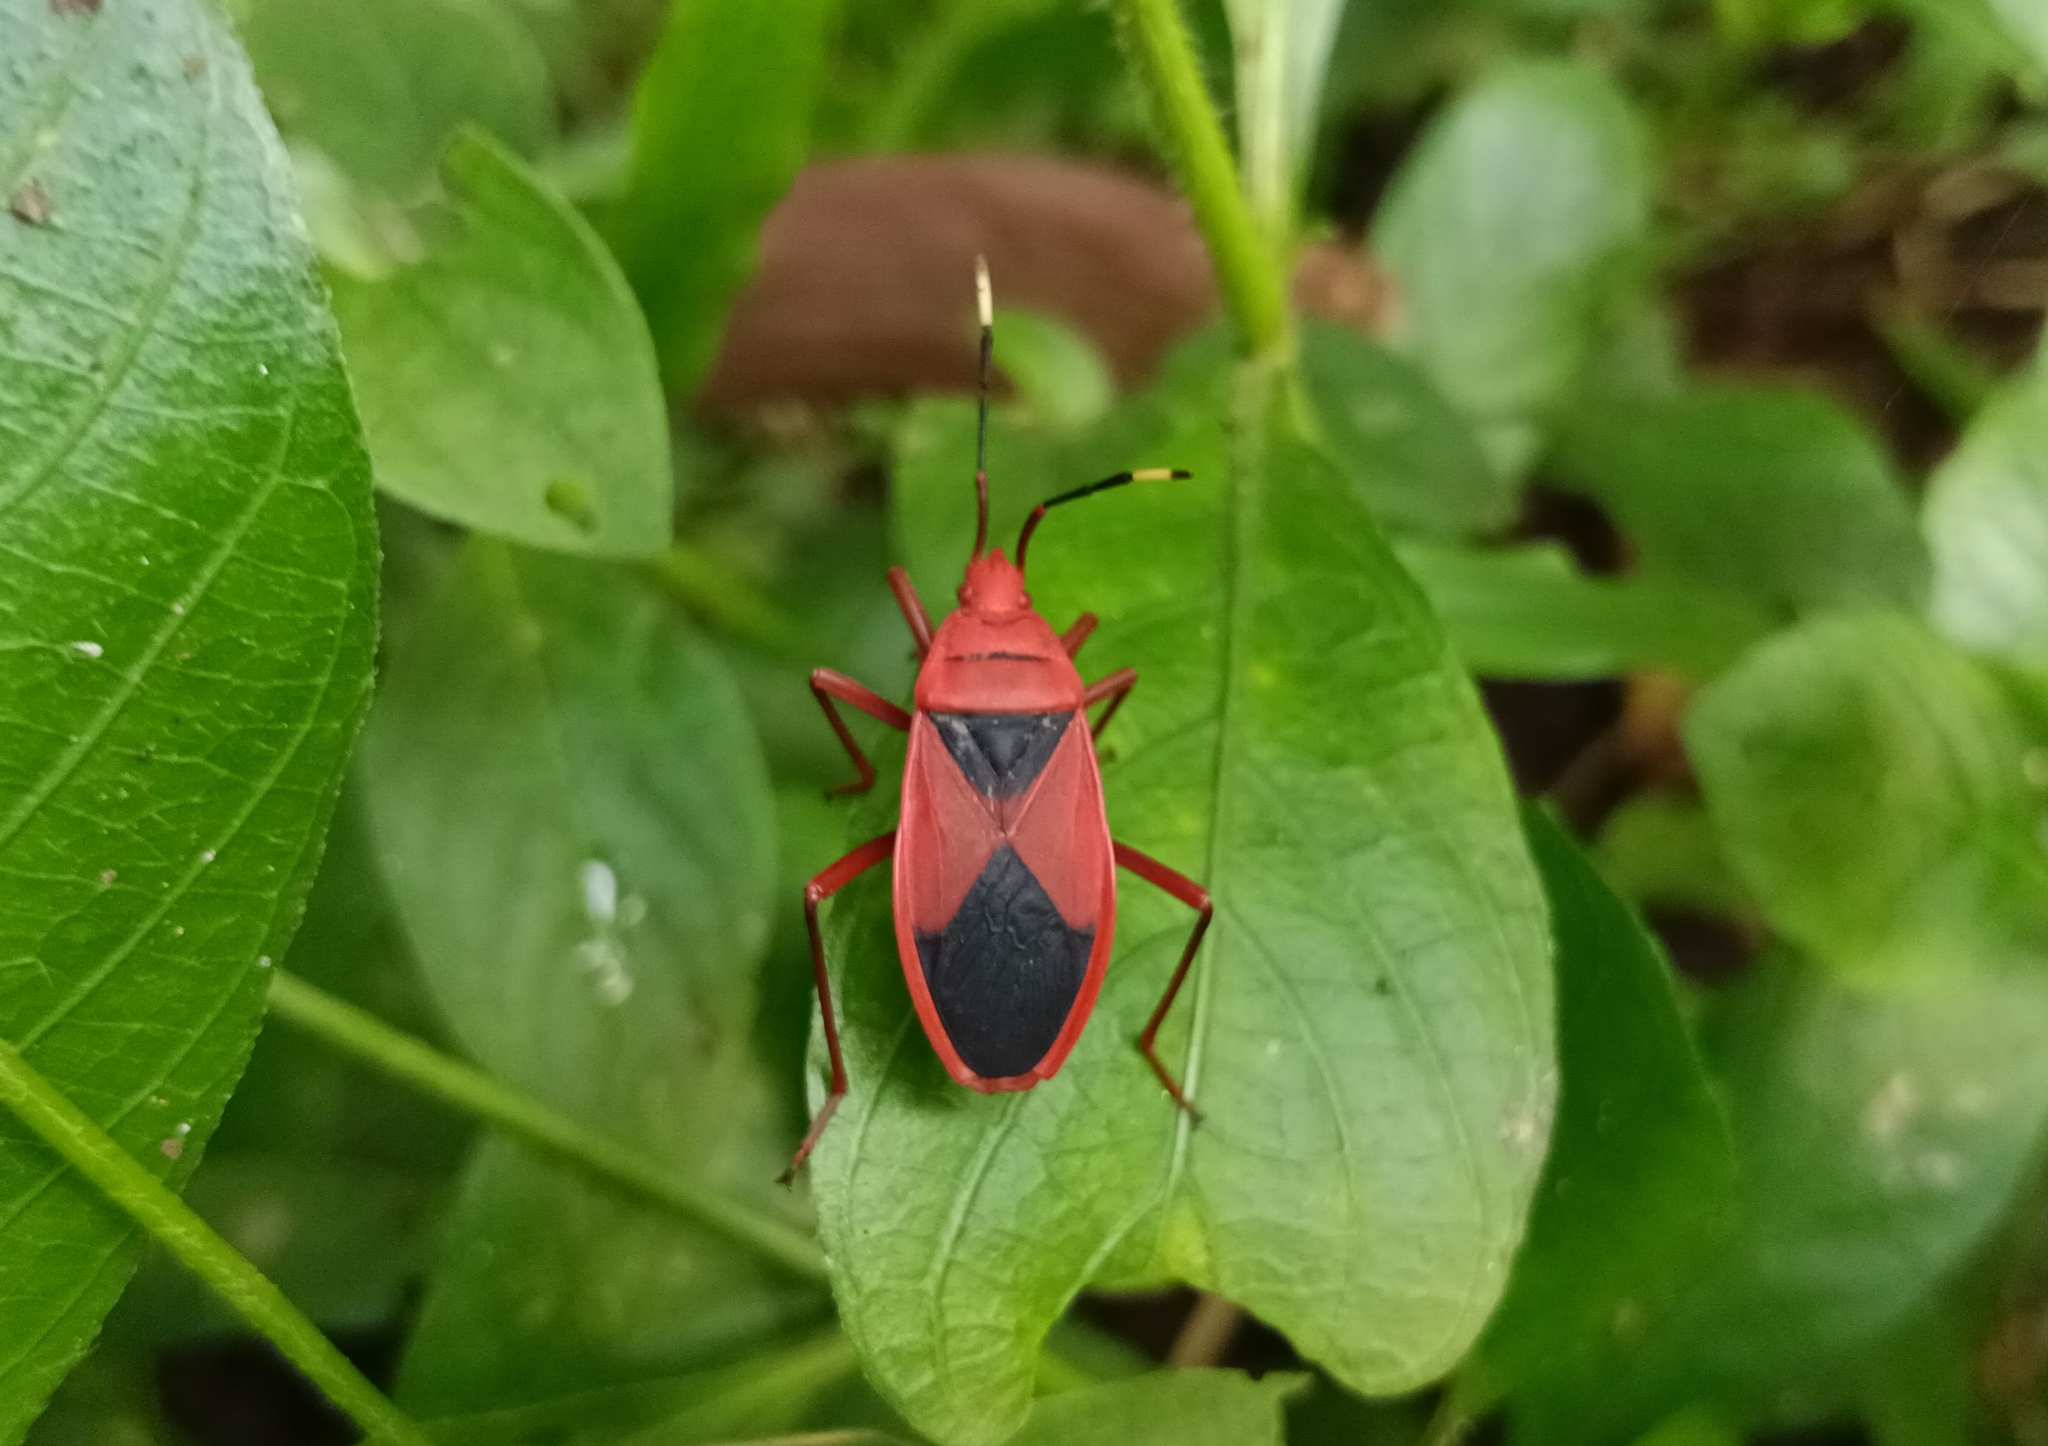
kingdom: Animalia
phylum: Arthropoda
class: Insecta
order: Hemiptera
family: Pyrrhocoridae
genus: Probergrothius
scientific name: Probergrothius
